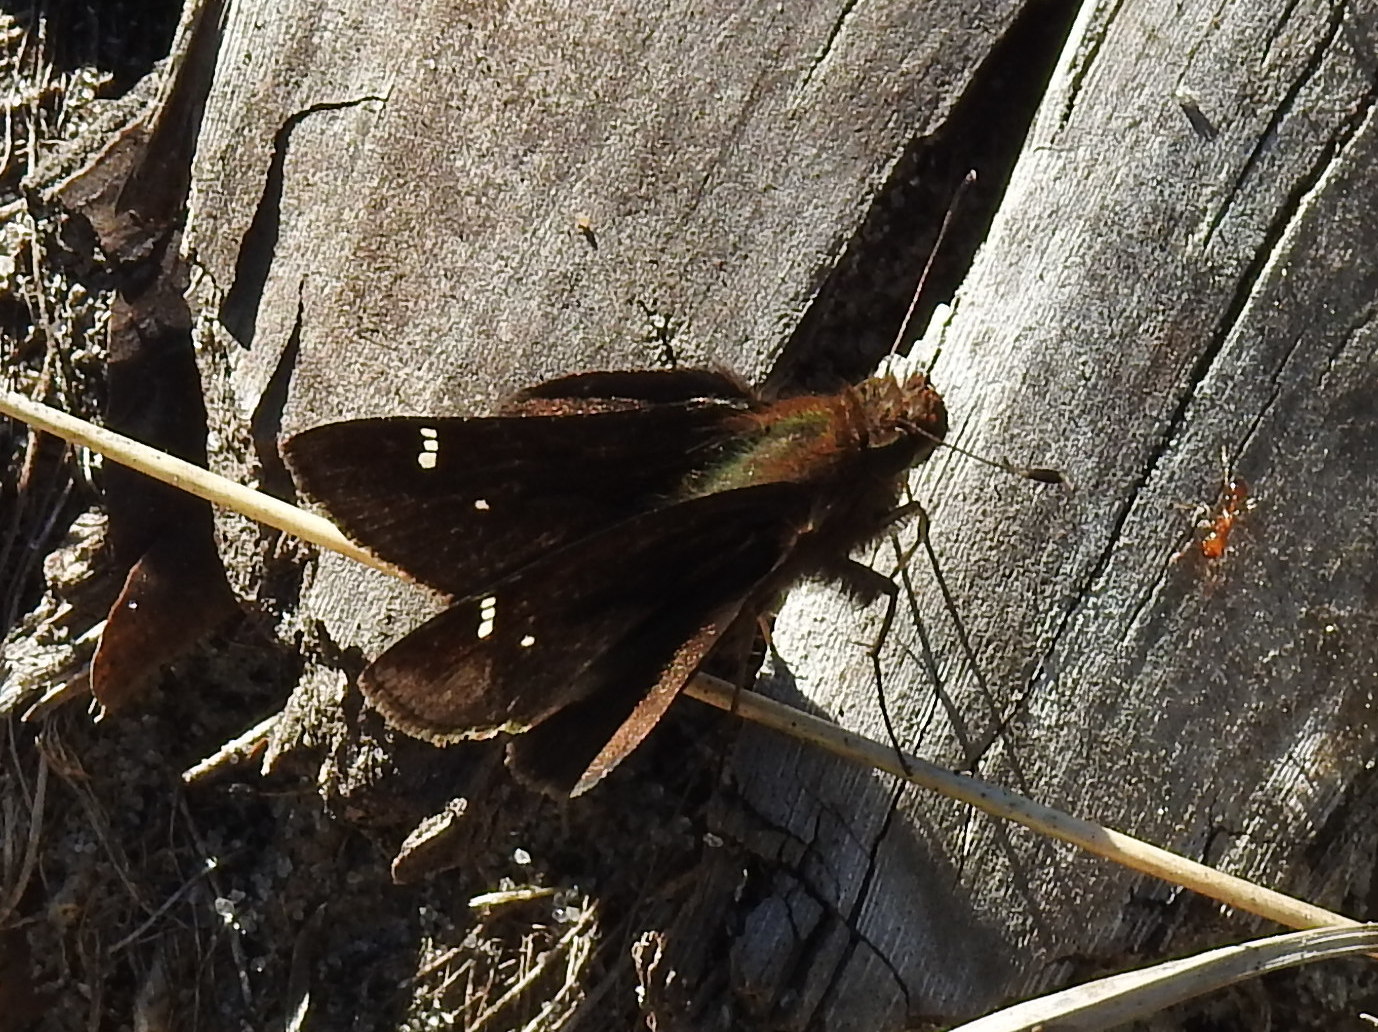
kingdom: Animalia
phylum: Arthropoda
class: Insecta
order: Lepidoptera
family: Hesperiidae
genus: Lerema
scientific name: Lerema accius
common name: Clouded skipper
